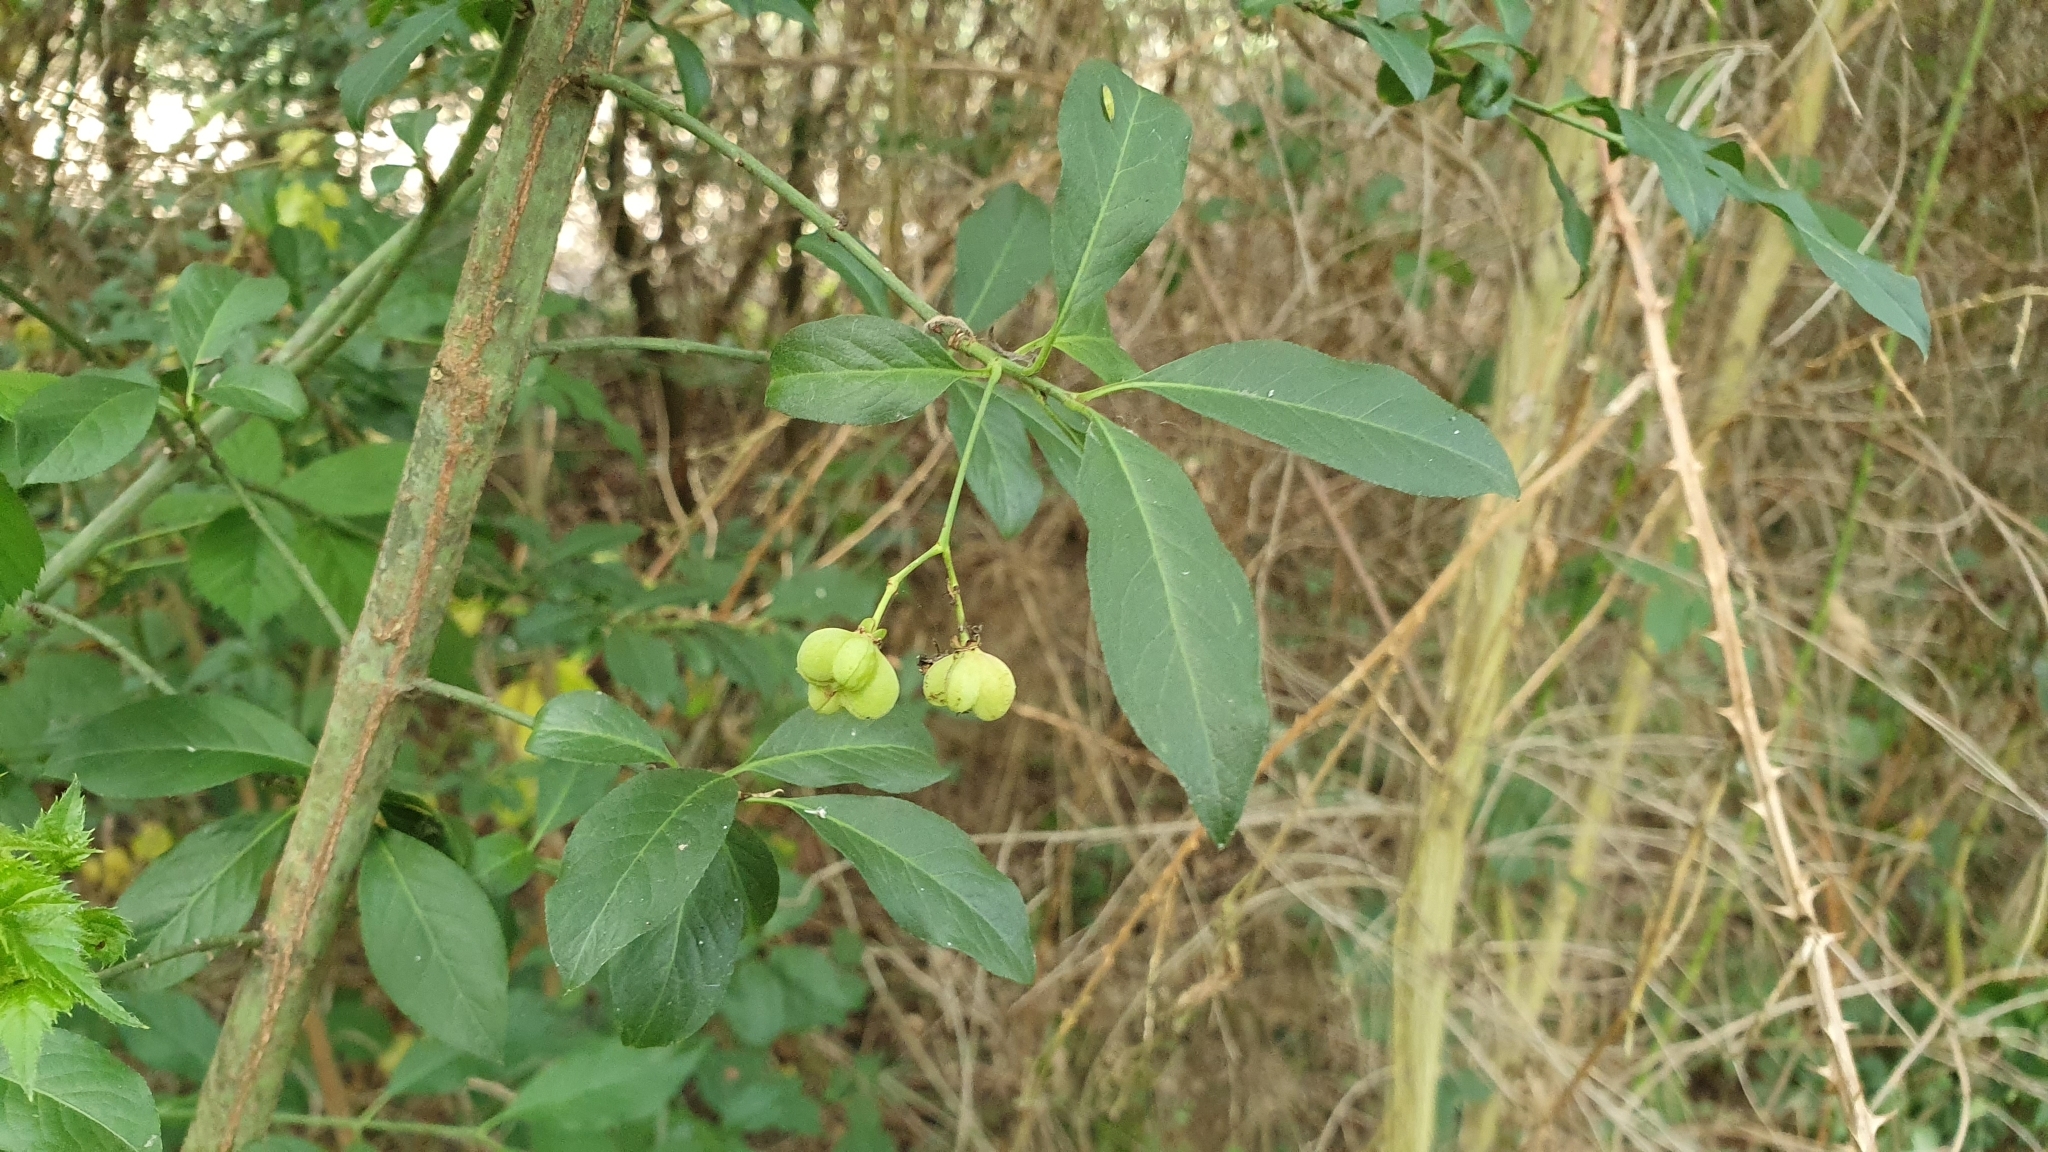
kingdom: Plantae
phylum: Tracheophyta
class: Magnoliopsida
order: Celastrales
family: Celastraceae
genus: Euonymus
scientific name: Euonymus europaeus
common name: Spindle
